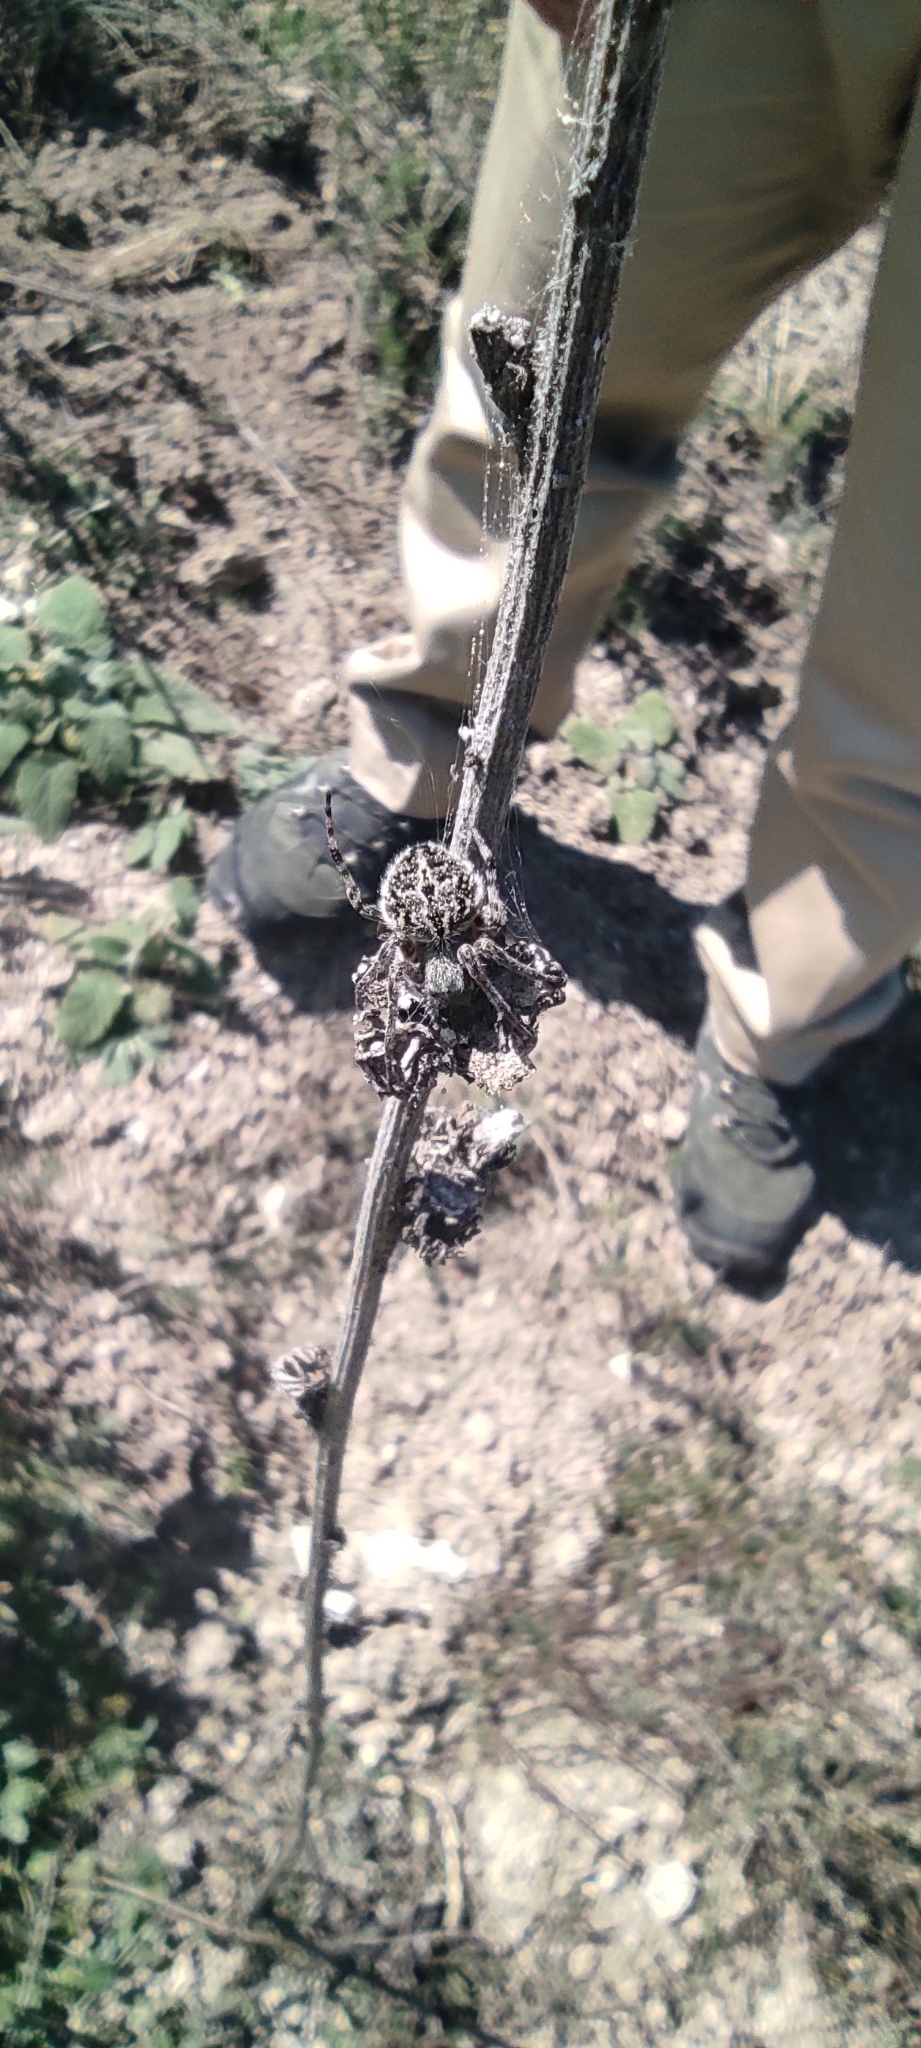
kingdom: Animalia
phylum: Arthropoda
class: Arachnida
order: Araneae
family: Araneidae
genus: Agalenatea
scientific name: Agalenatea redii
